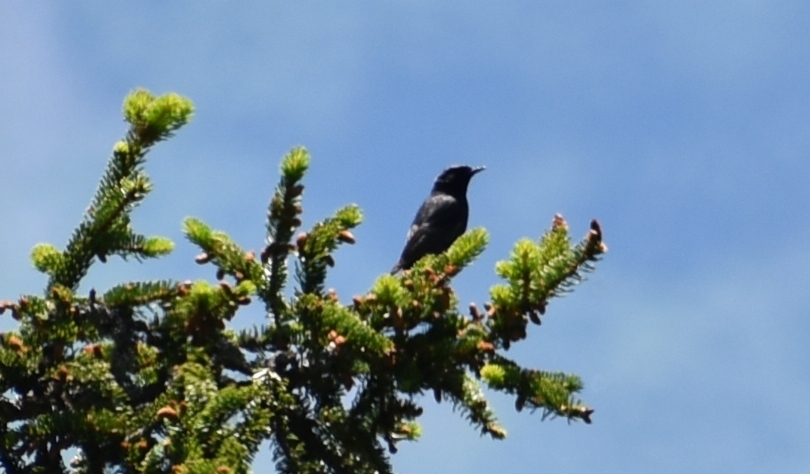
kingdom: Animalia
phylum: Chordata
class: Aves
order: Passeriformes
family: Muscicapidae
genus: Phoenicurus
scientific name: Phoenicurus ochruros
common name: Black redstart
